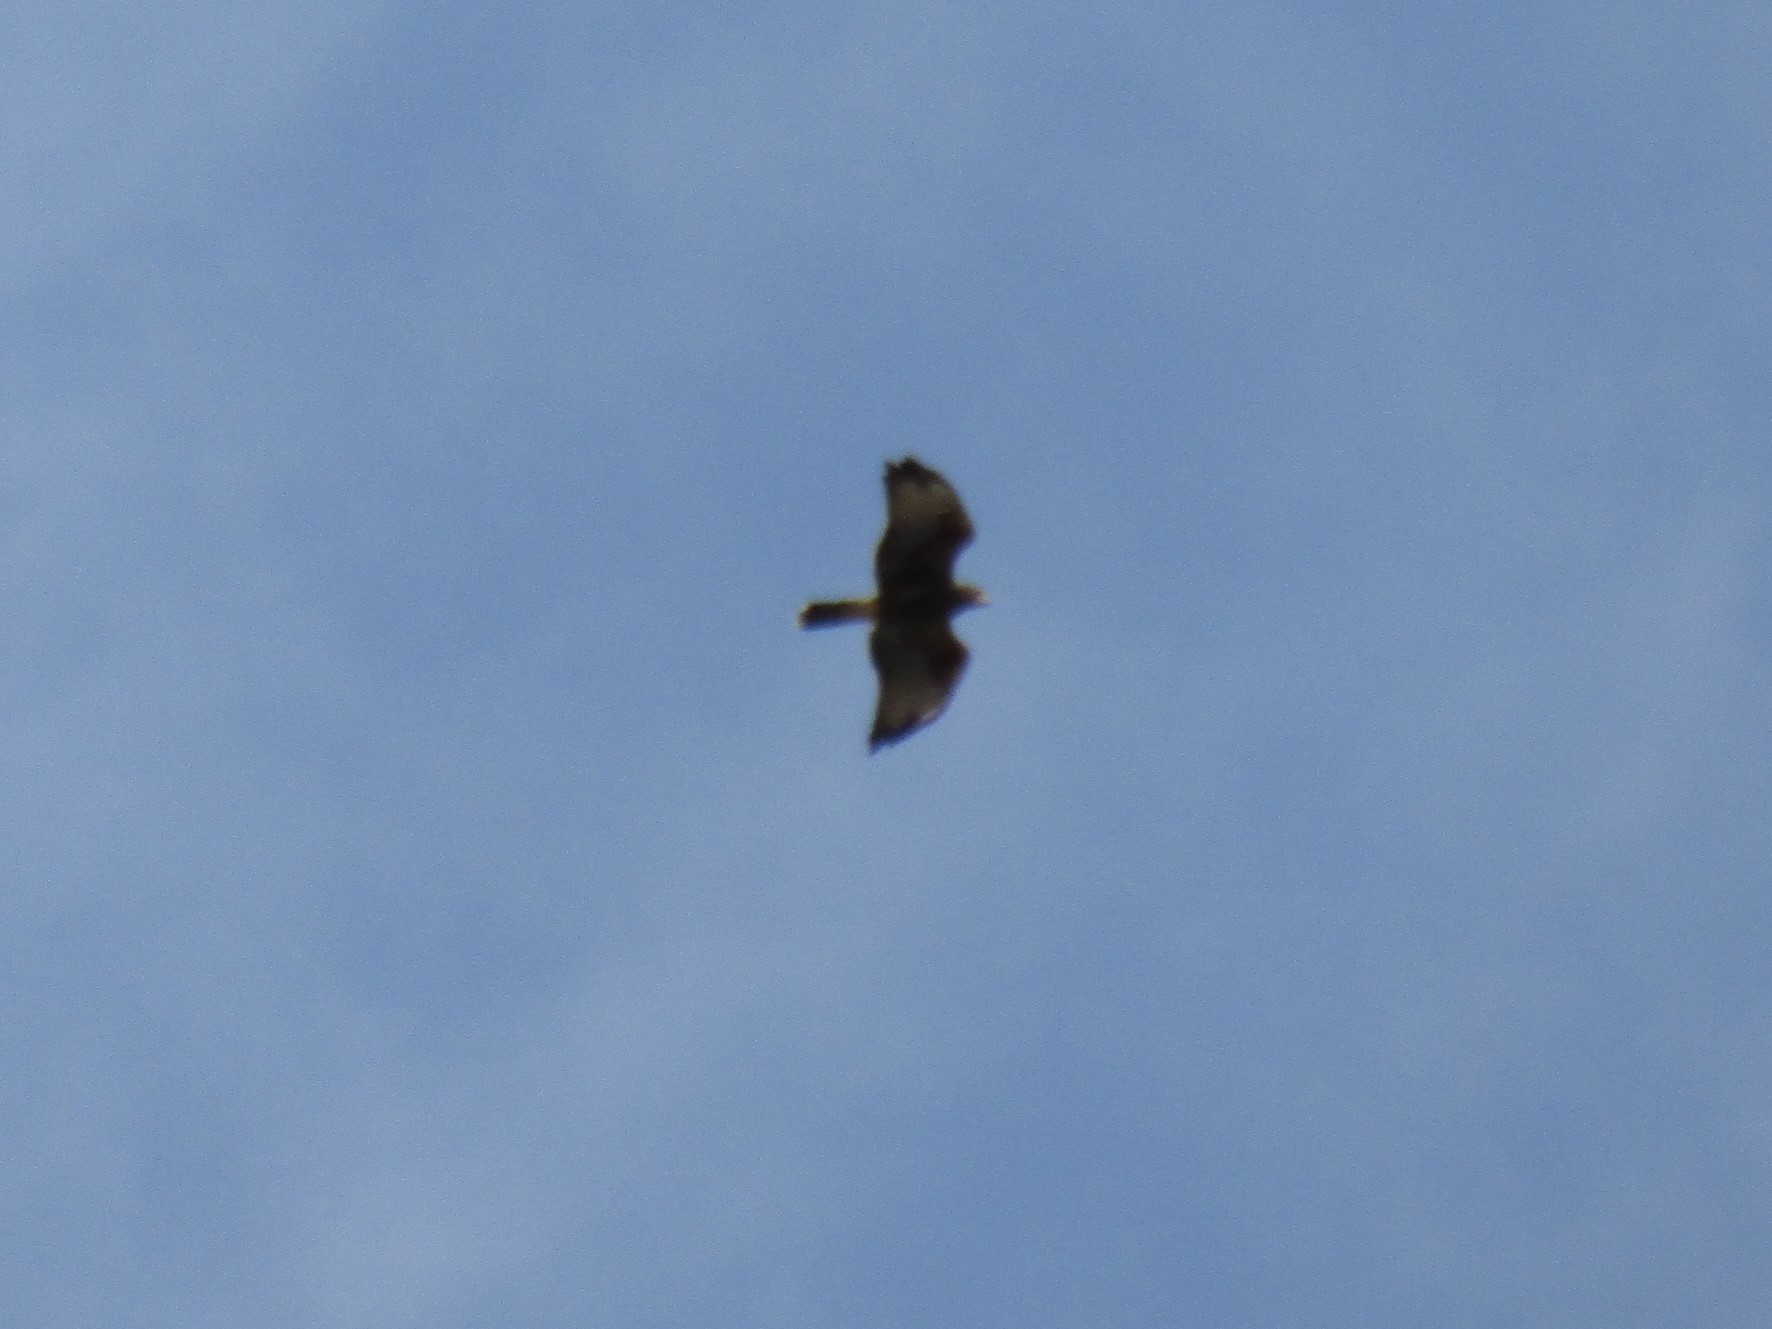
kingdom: Animalia
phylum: Chordata
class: Aves
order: Accipitriformes
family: Accipitridae
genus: Parabuteo
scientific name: Parabuteo unicinctus
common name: Harris's hawk
